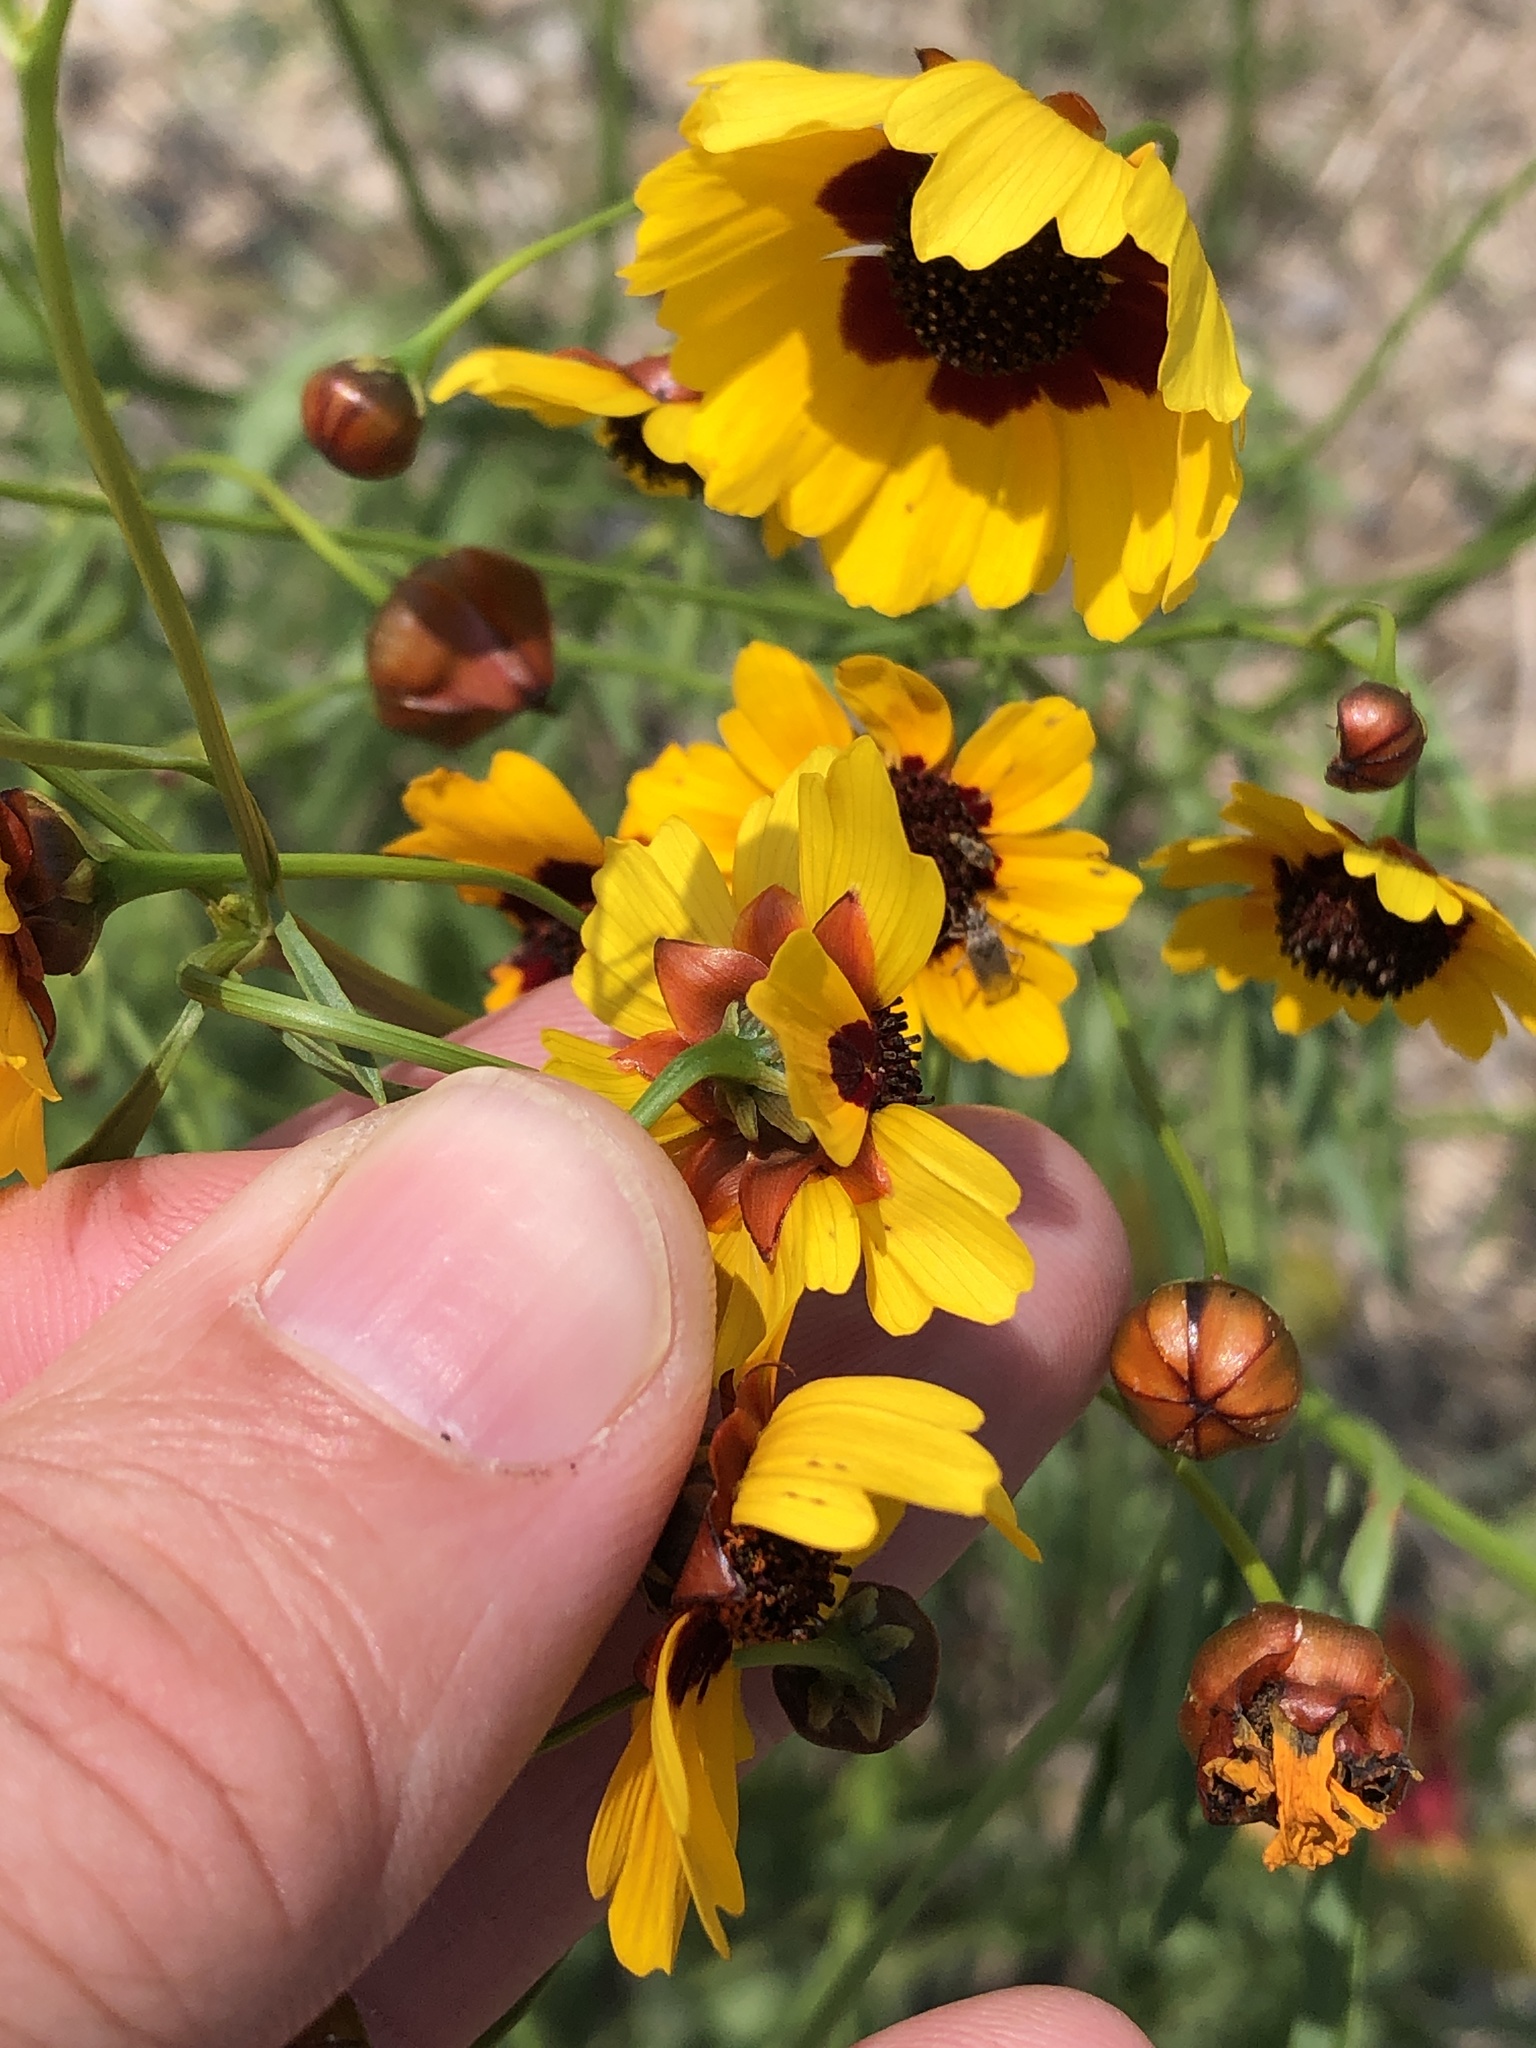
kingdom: Plantae
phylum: Tracheophyta
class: Magnoliopsida
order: Asterales
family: Asteraceae
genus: Coreopsis
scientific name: Coreopsis tinctoria
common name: Garden tickseed
